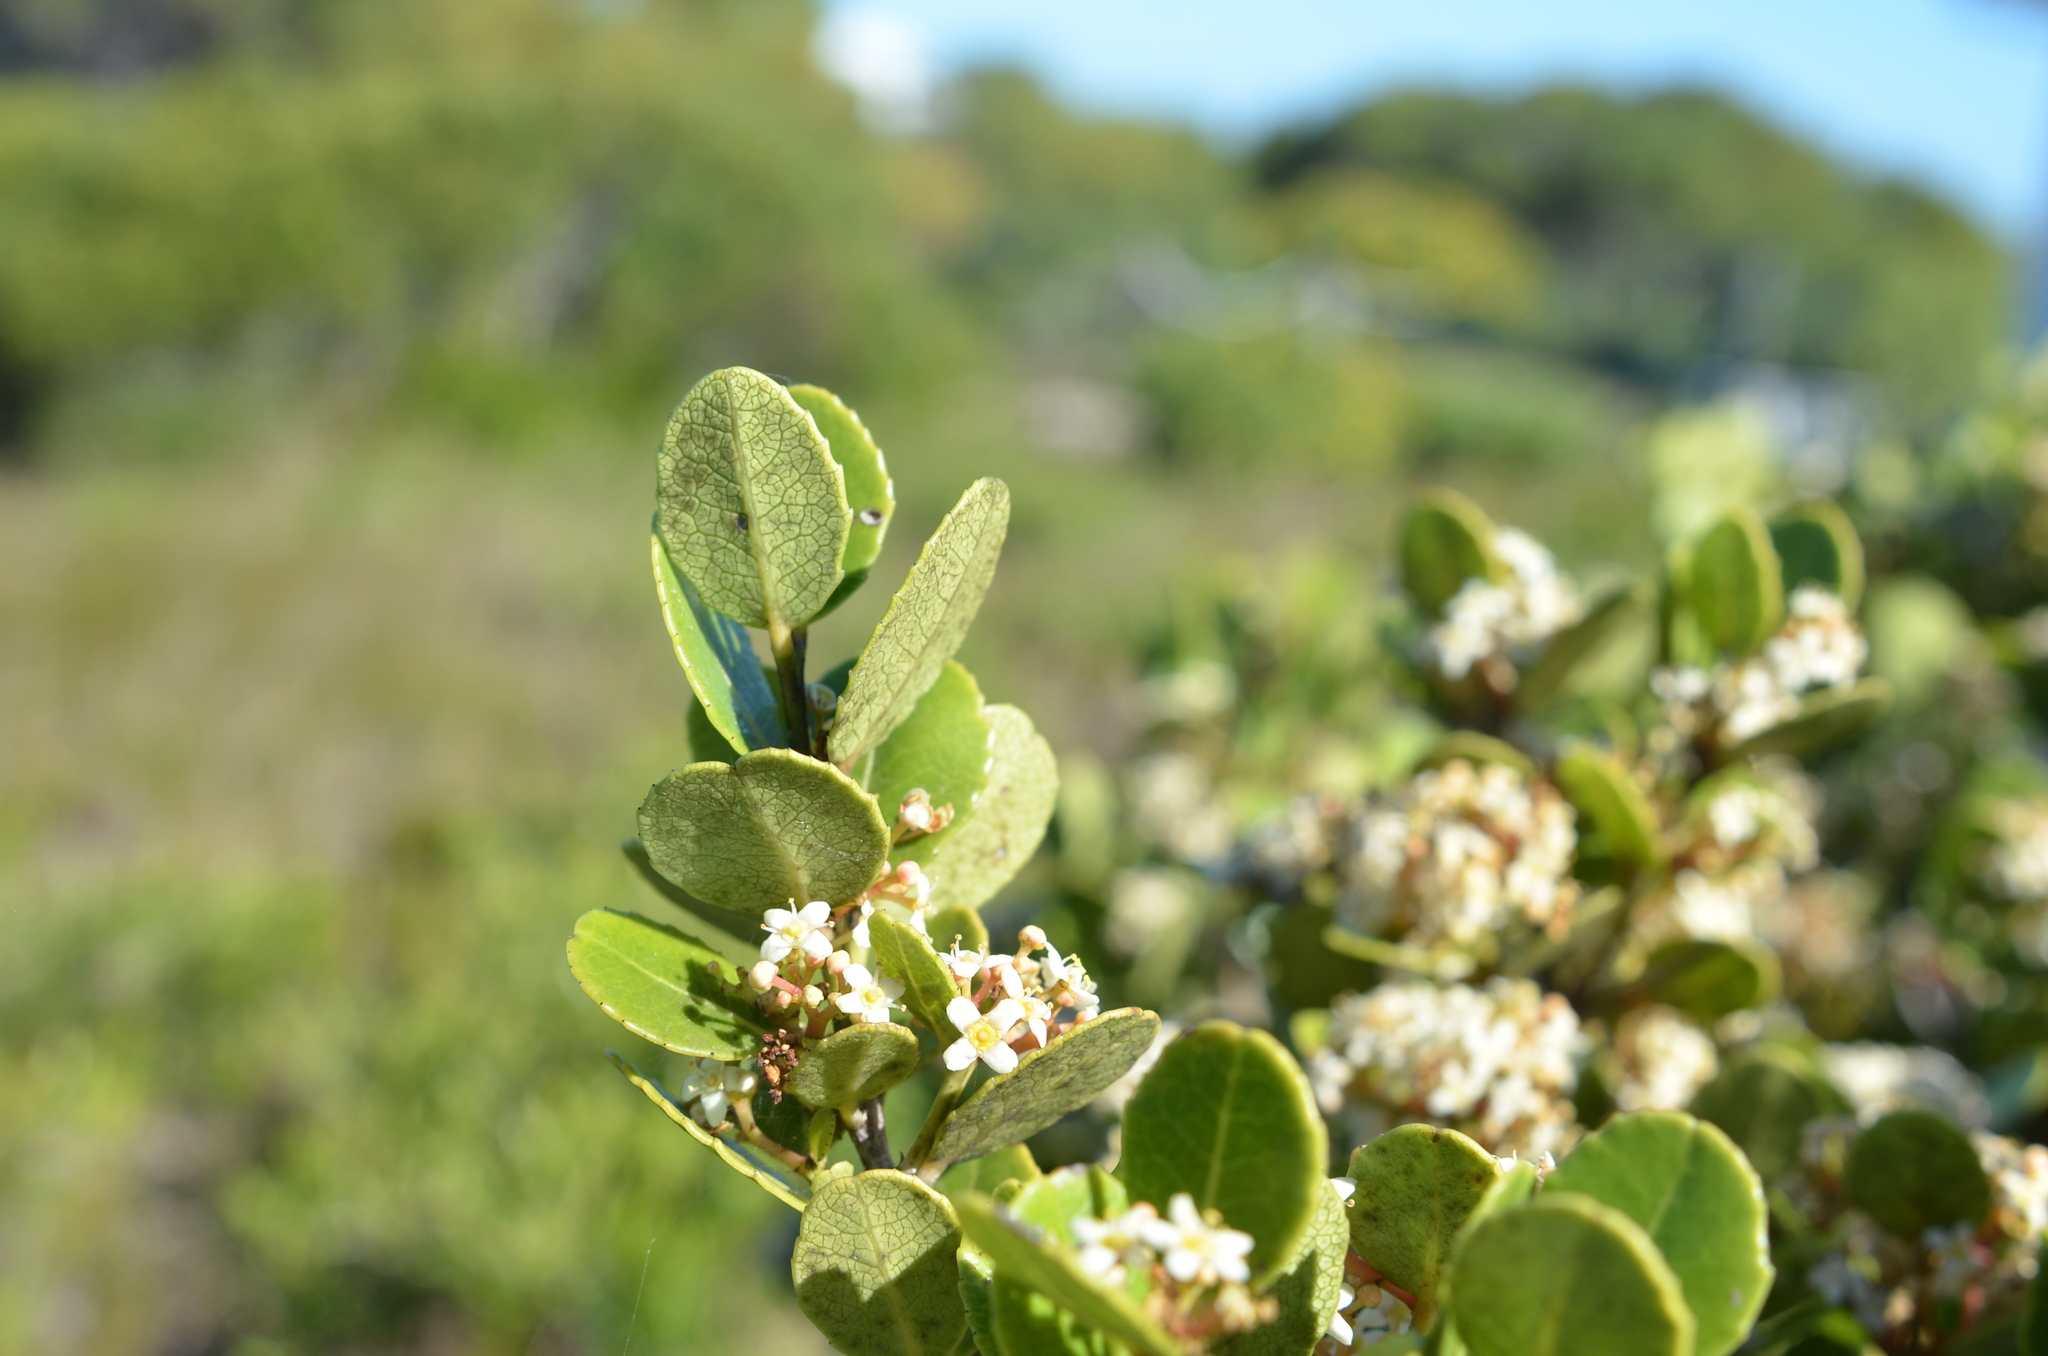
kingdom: Plantae
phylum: Tracheophyta
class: Magnoliopsida
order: Celastrales
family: Celastraceae
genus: Cassine
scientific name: Cassine peragua
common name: Cape saffron
